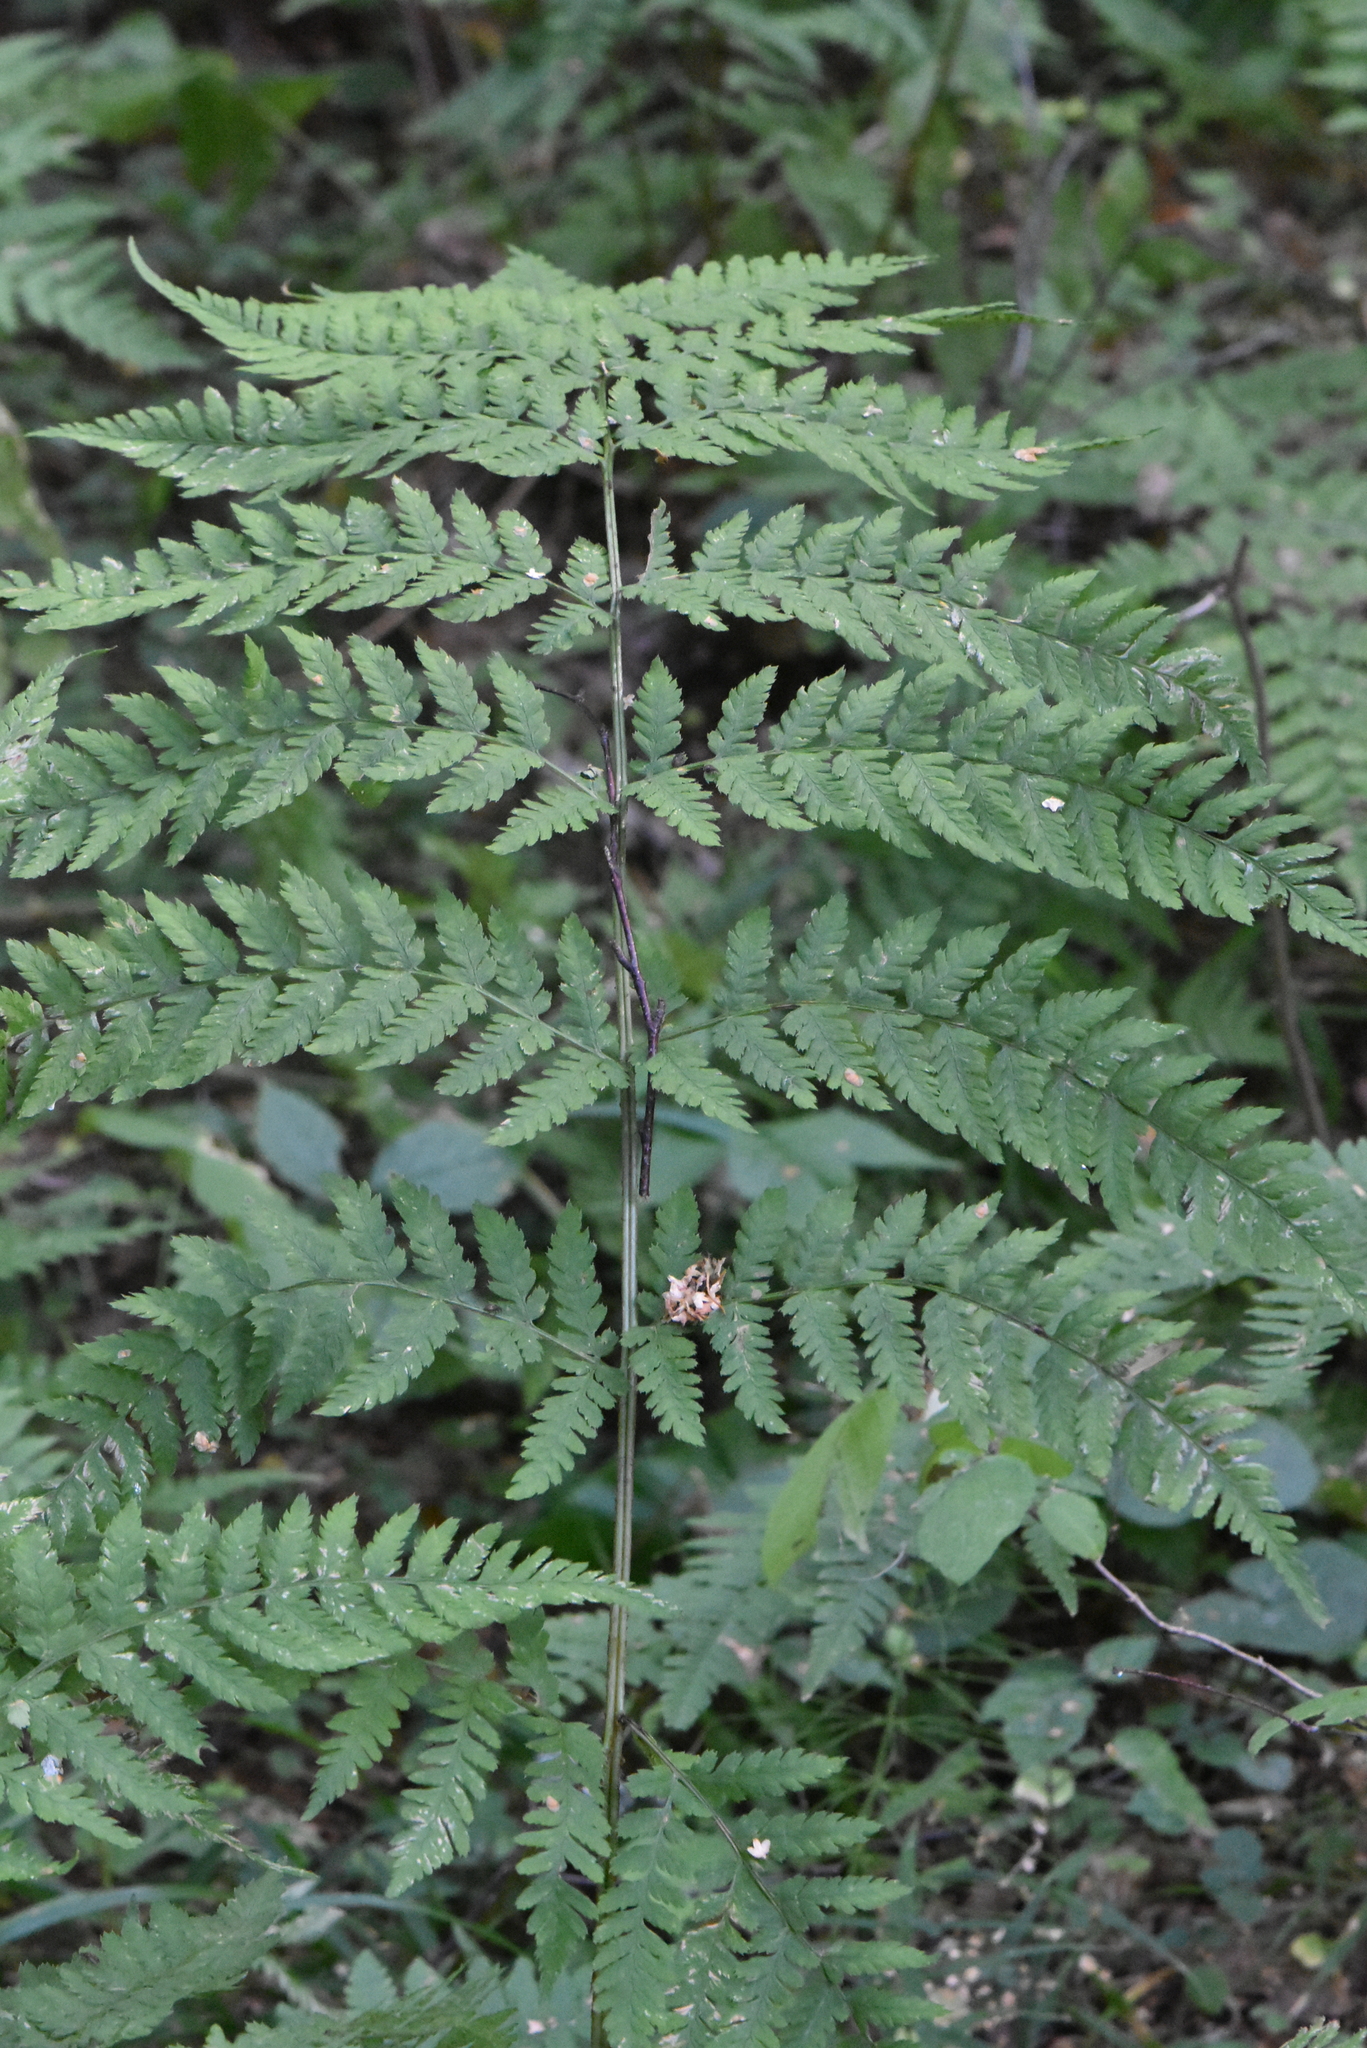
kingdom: Plantae
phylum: Tracheophyta
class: Polypodiopsida
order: Polypodiales
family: Dryopteridaceae
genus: Dryopteris
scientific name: Dryopteris expansa
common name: Northern buckler fern
